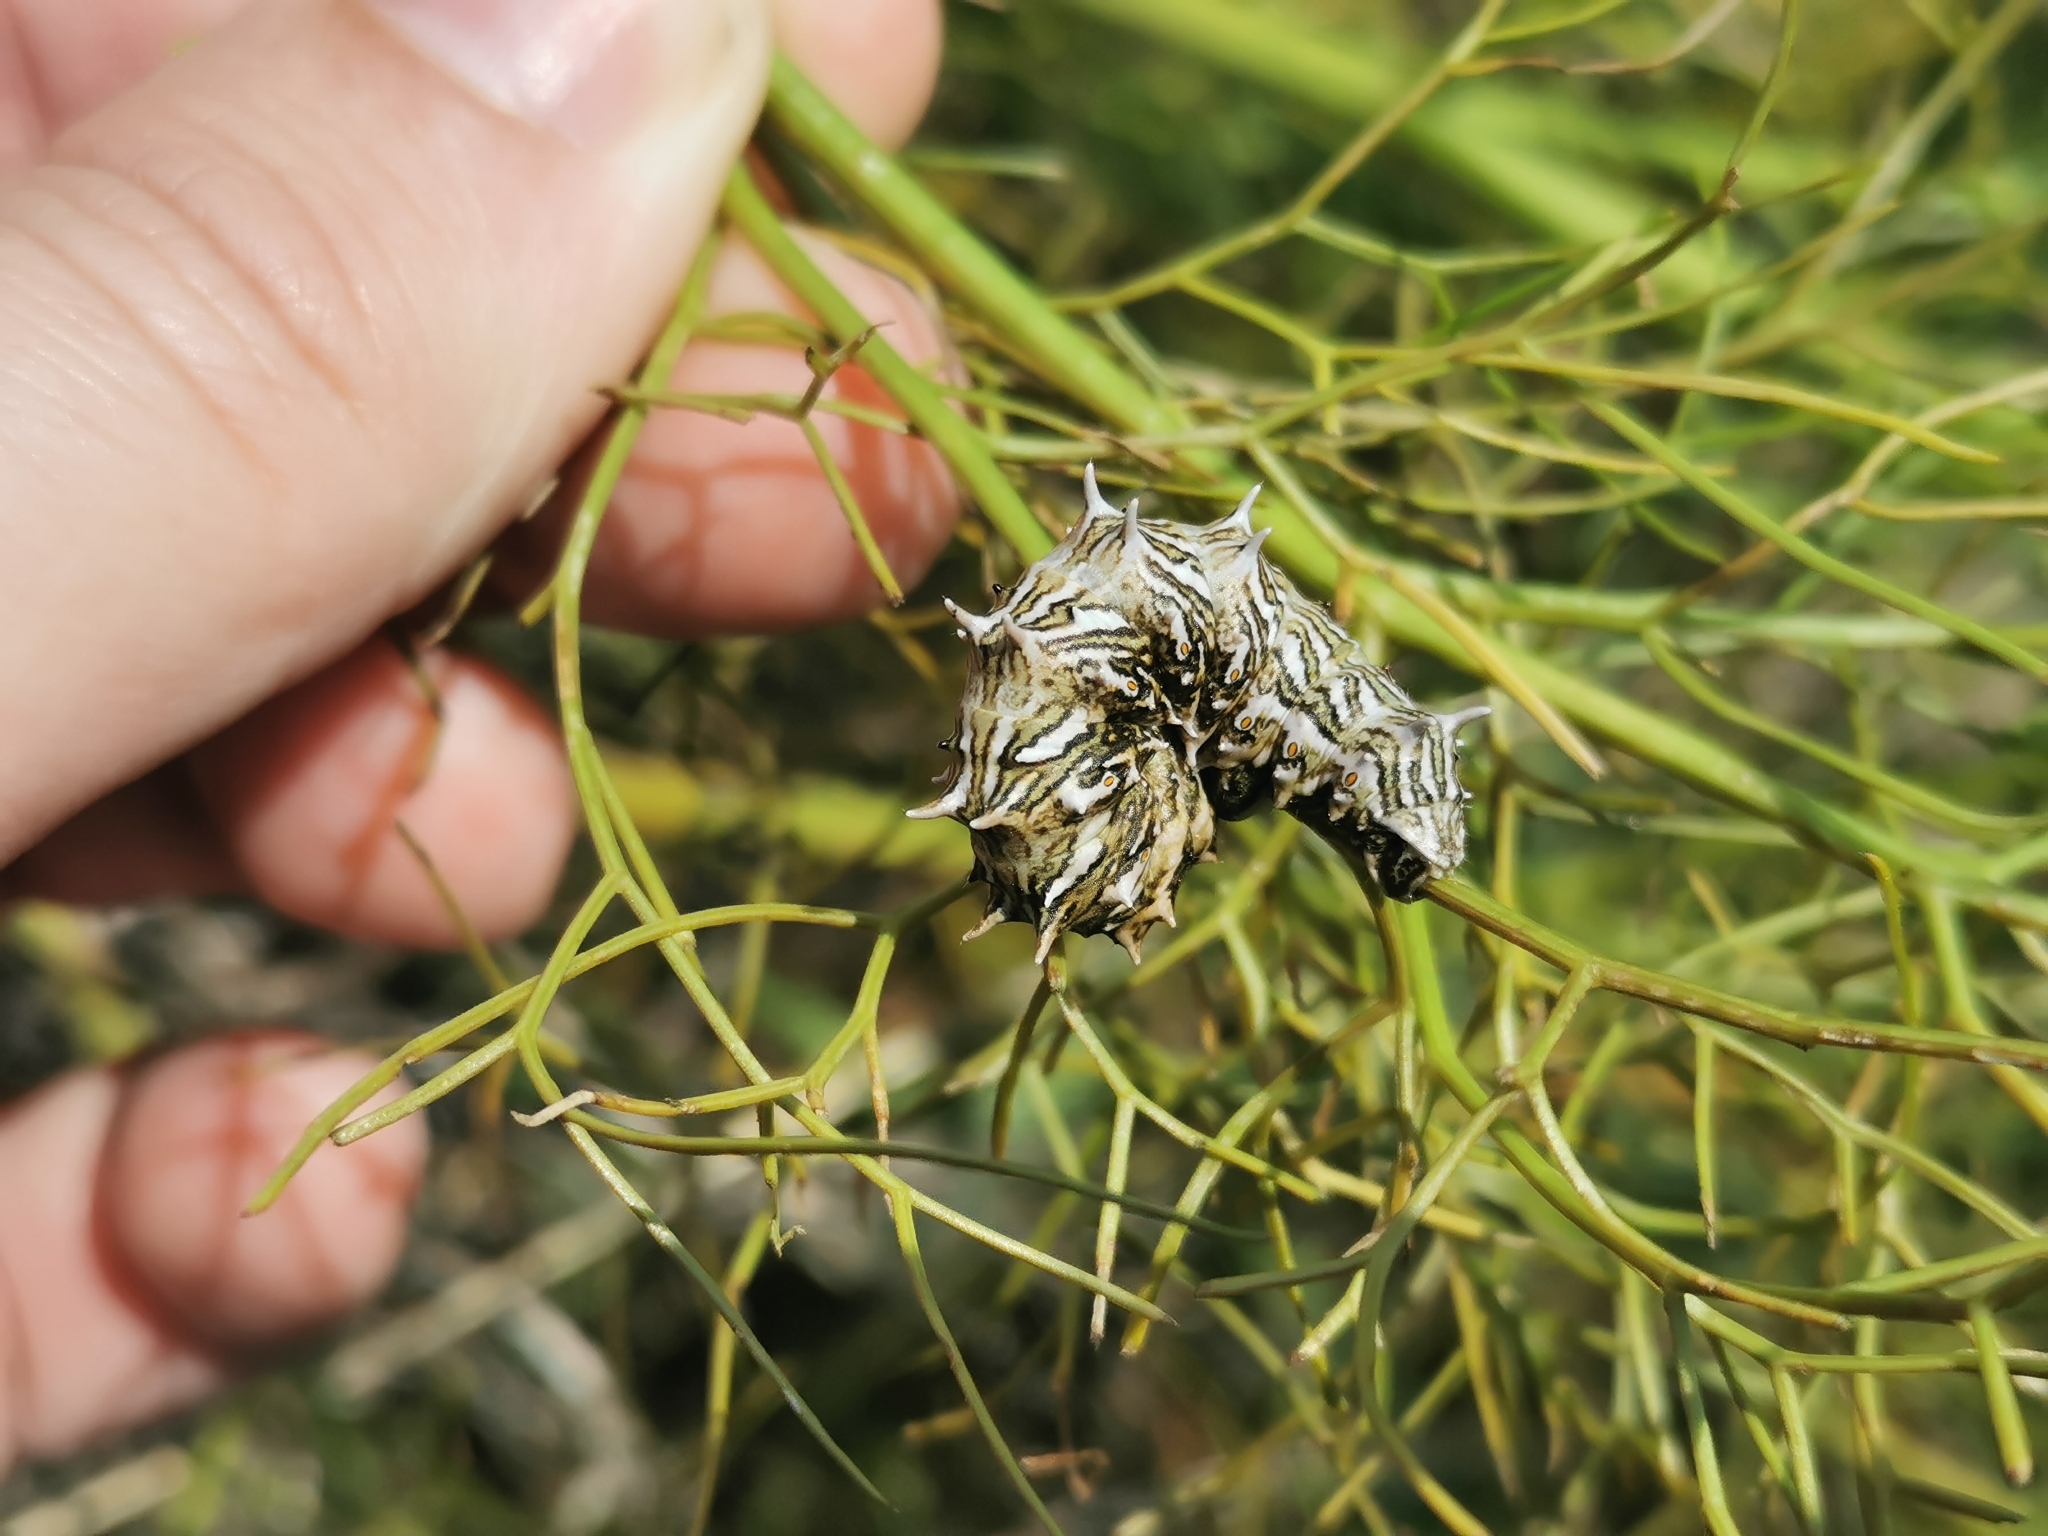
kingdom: Animalia
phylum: Arthropoda
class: Insecta
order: Lepidoptera
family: Geometridae
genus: Apochima
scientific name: Apochima flabellaria
